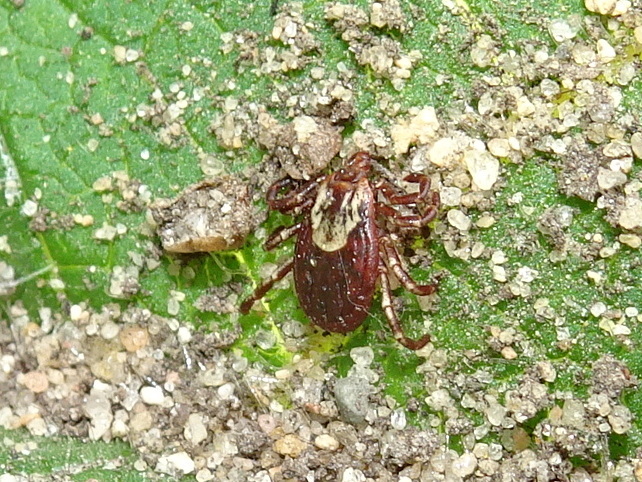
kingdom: Animalia
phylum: Arthropoda
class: Arachnida
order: Ixodida
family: Ixodidae
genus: Dermacentor
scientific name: Dermacentor variabilis
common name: American dog tick
